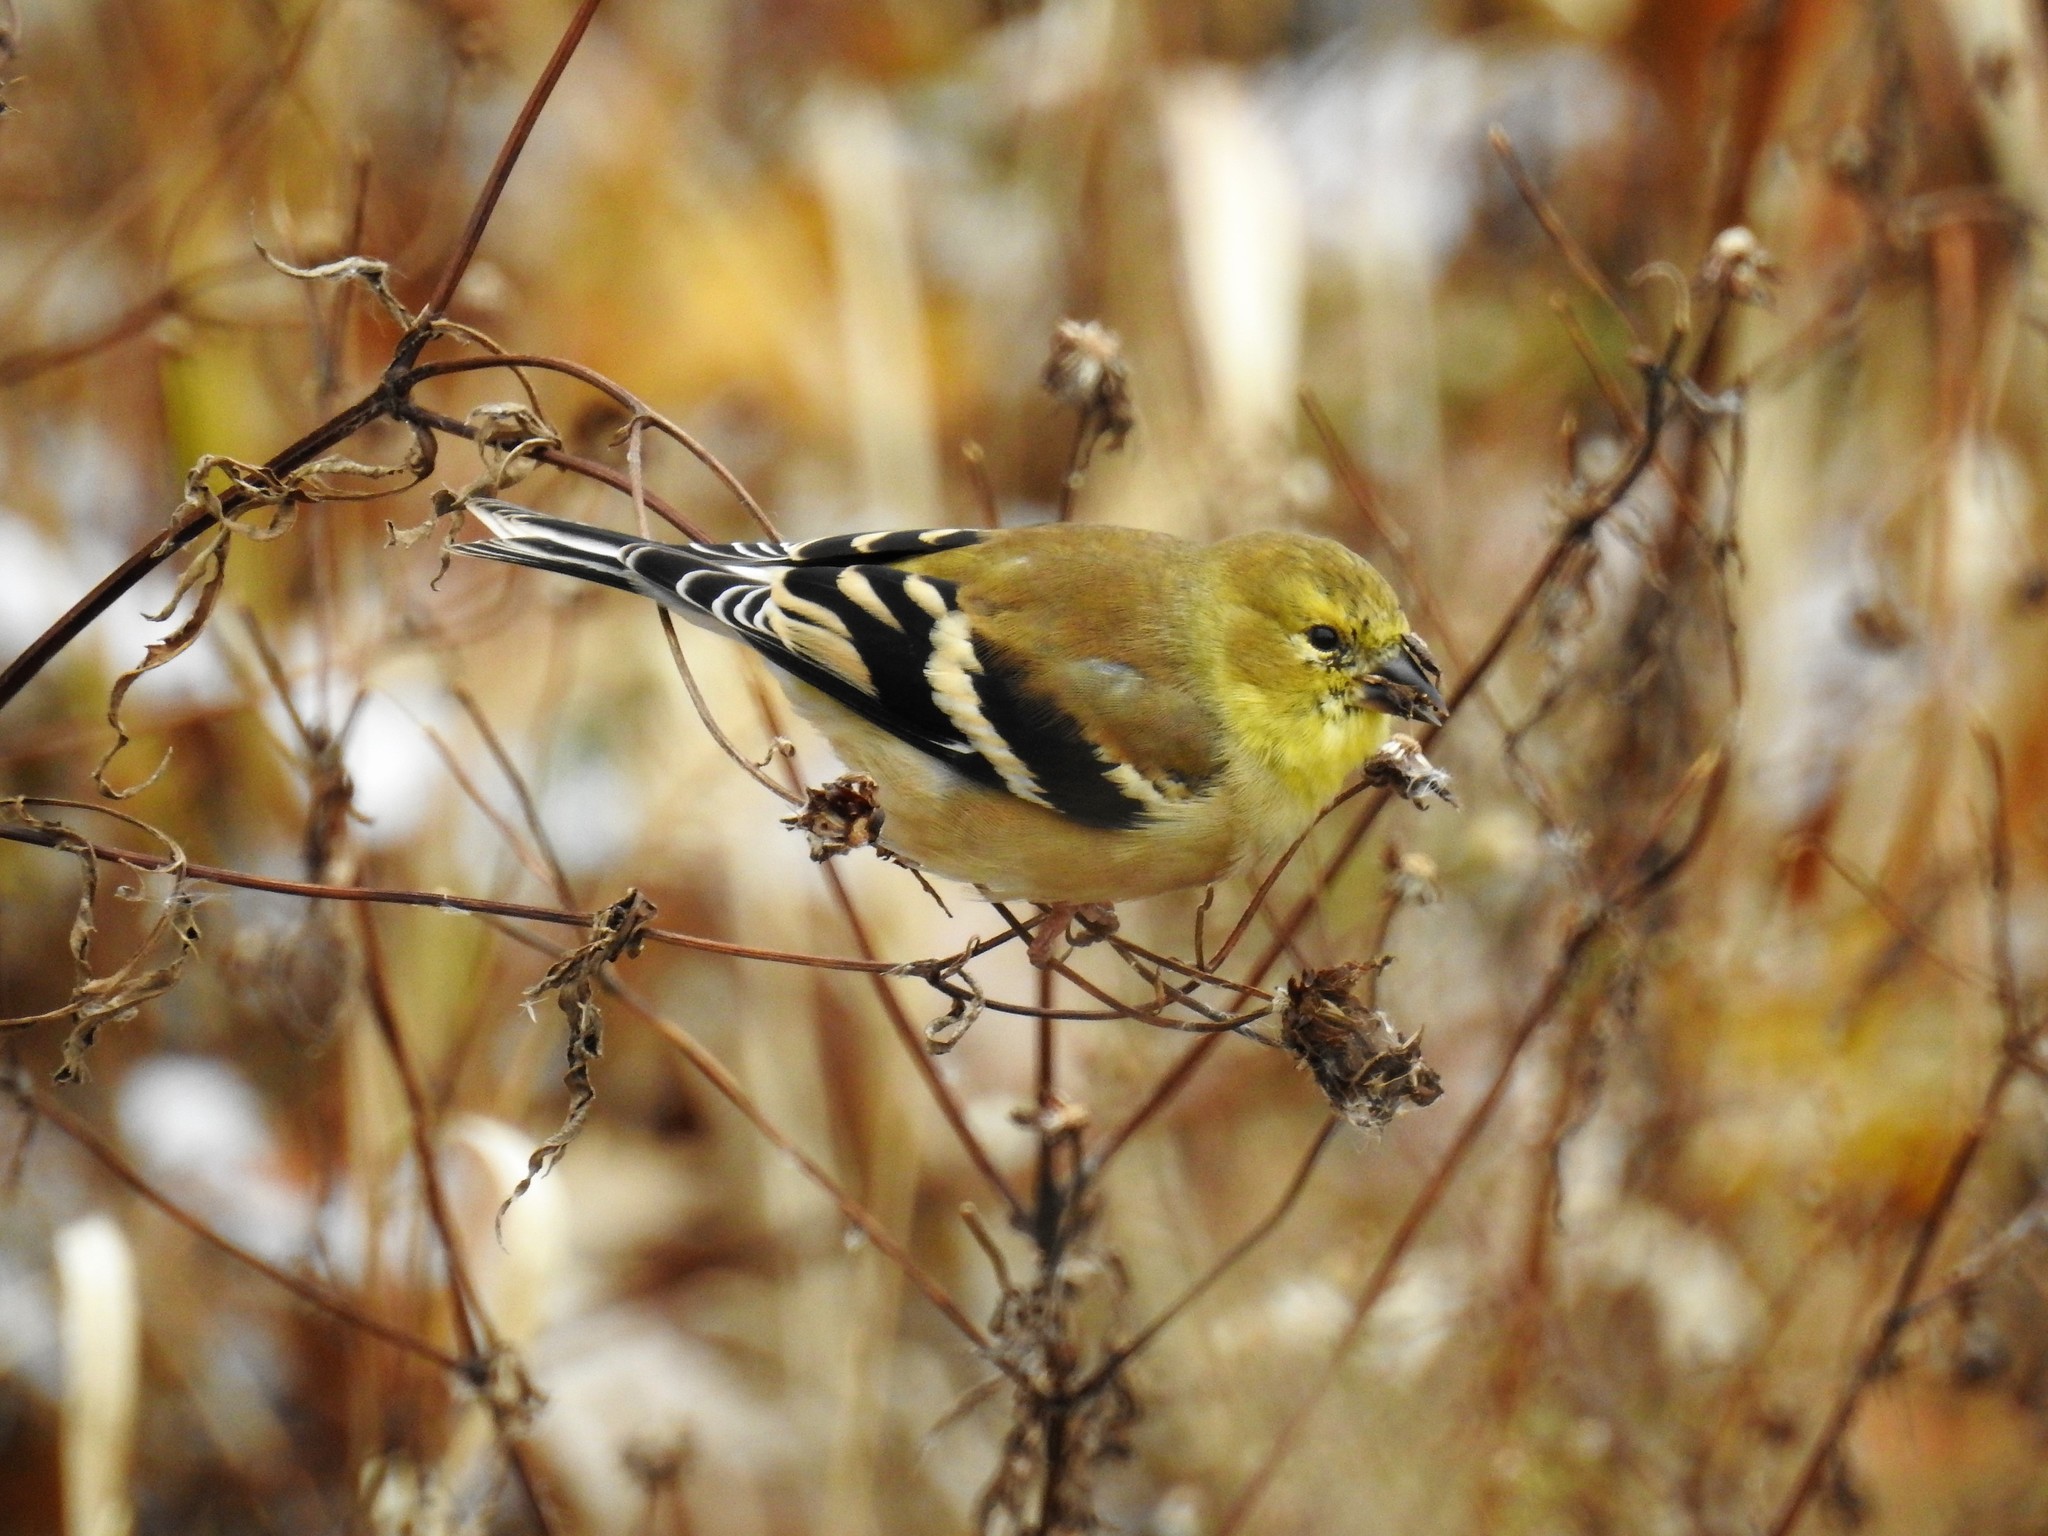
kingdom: Animalia
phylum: Chordata
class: Aves
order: Passeriformes
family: Fringillidae
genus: Spinus
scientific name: Spinus tristis
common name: American goldfinch
